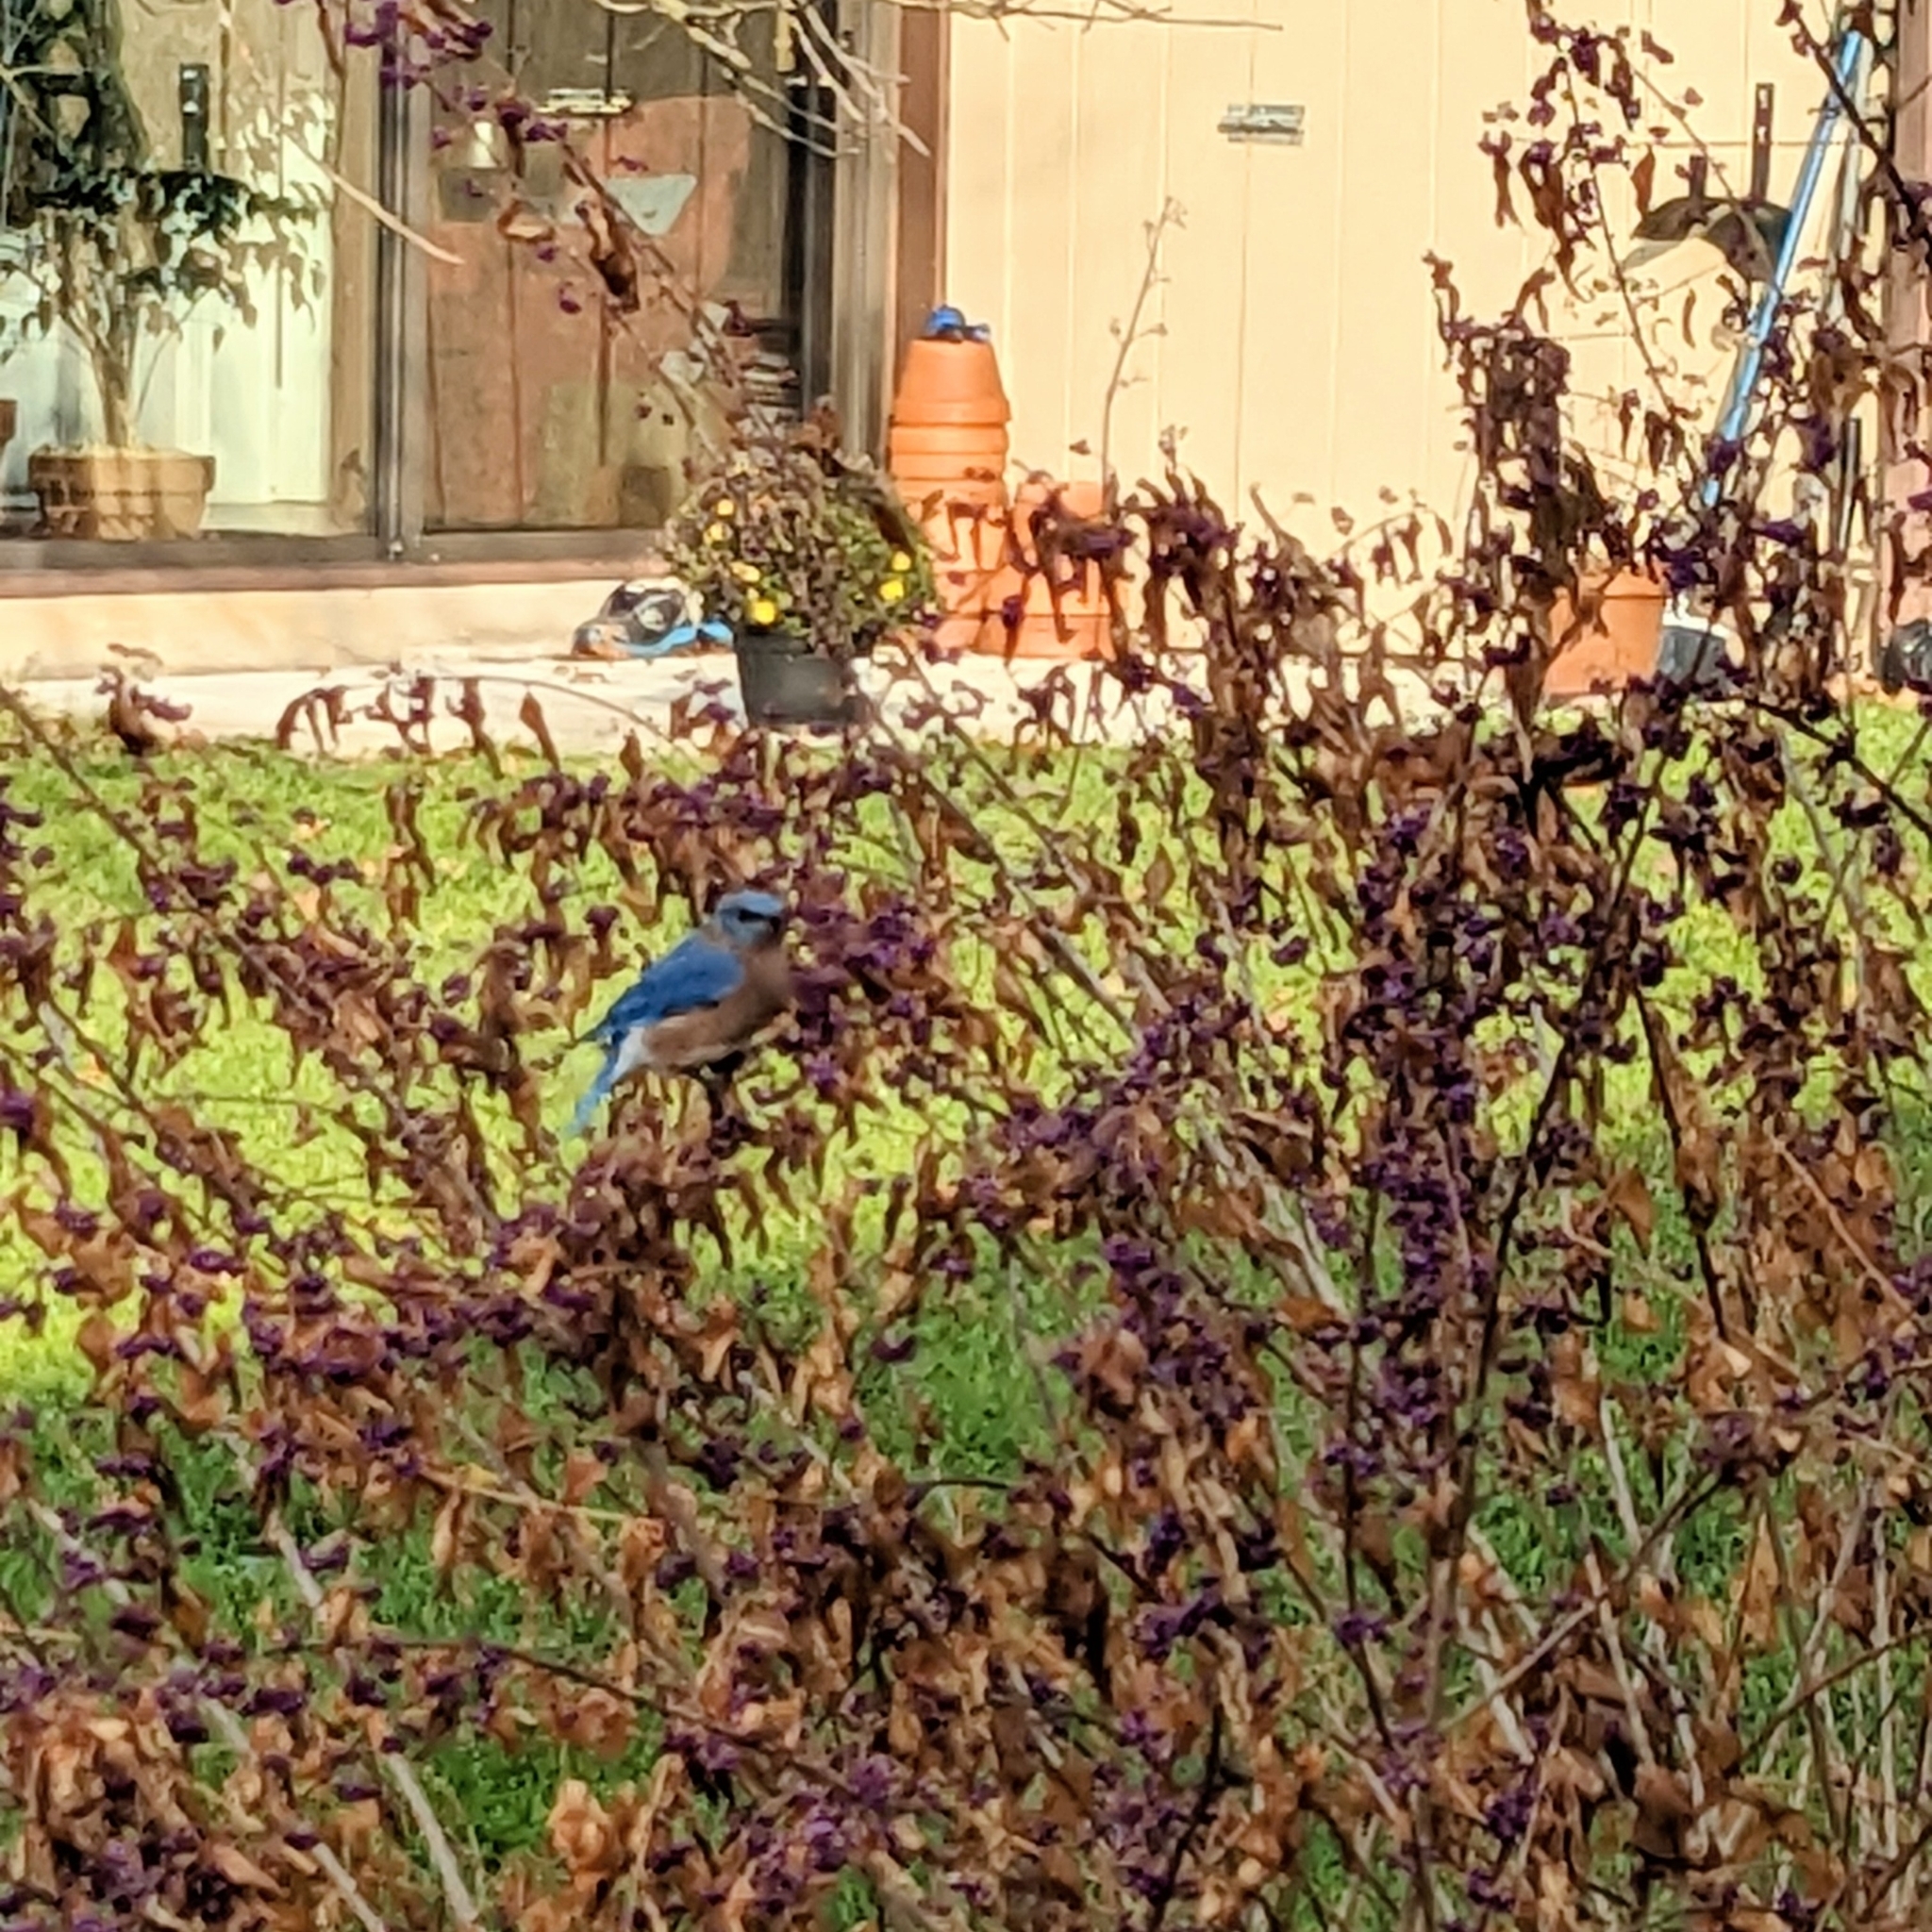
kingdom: Animalia
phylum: Chordata
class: Aves
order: Passeriformes
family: Turdidae
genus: Sialia
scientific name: Sialia sialis
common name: Eastern bluebird
